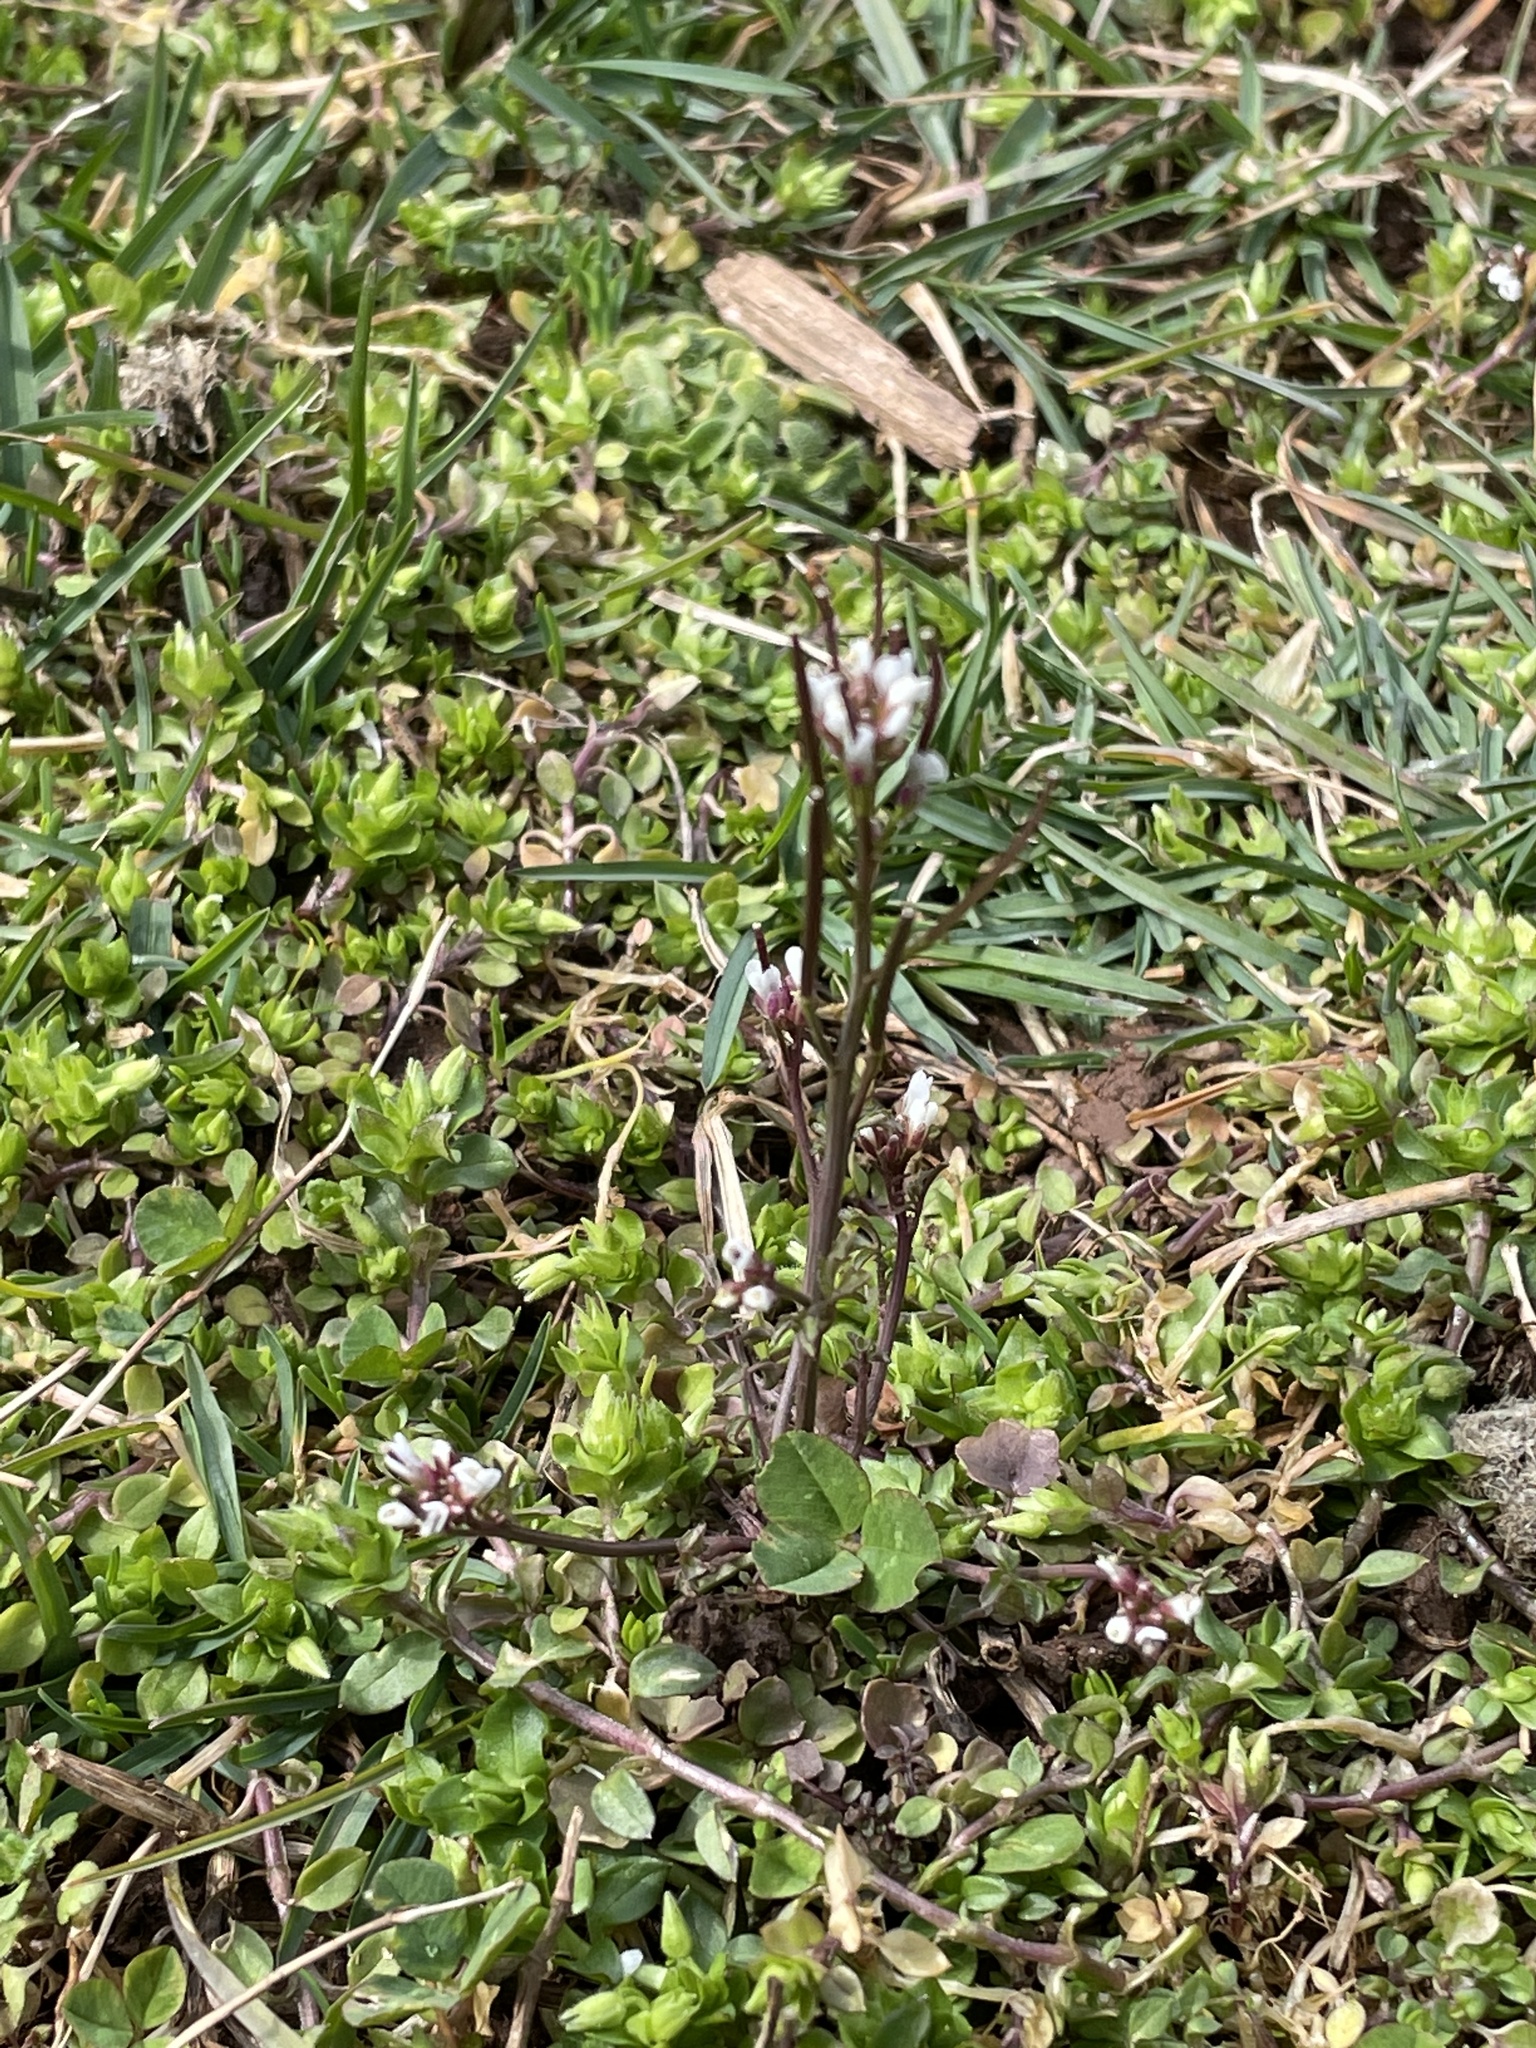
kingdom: Plantae
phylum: Tracheophyta
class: Magnoliopsida
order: Brassicales
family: Brassicaceae
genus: Cardamine
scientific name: Cardamine hirsuta
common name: Hairy bittercress
